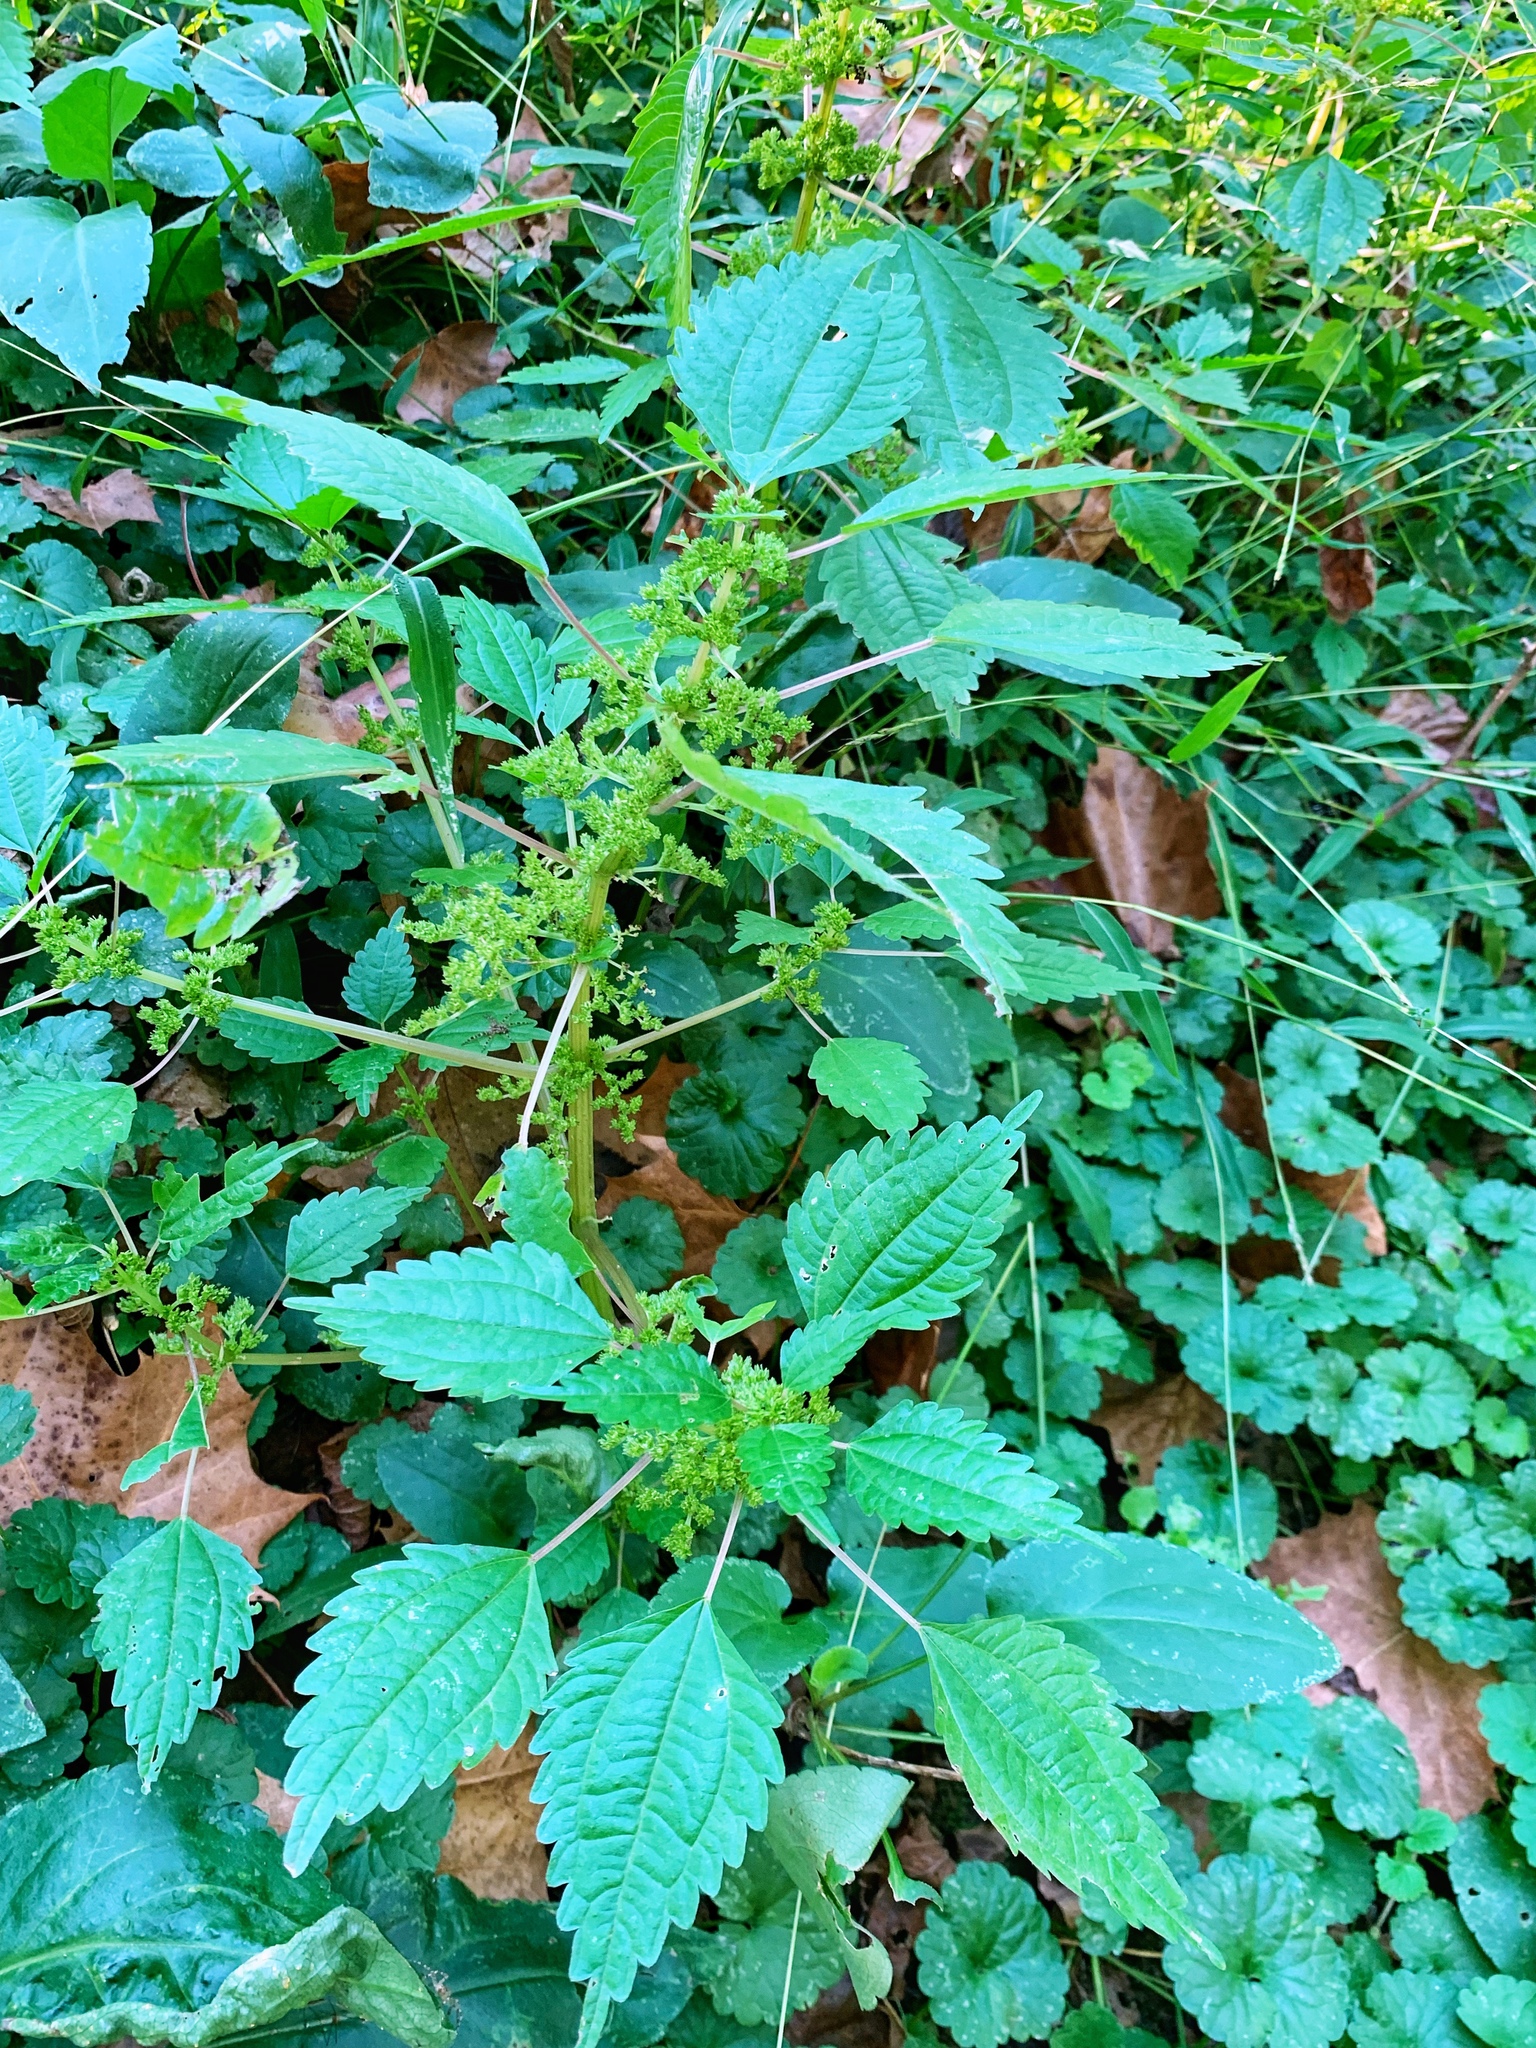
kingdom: Plantae
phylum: Tracheophyta
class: Magnoliopsida
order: Rosales
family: Urticaceae
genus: Pilea
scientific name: Pilea pumila
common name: Clearweed
